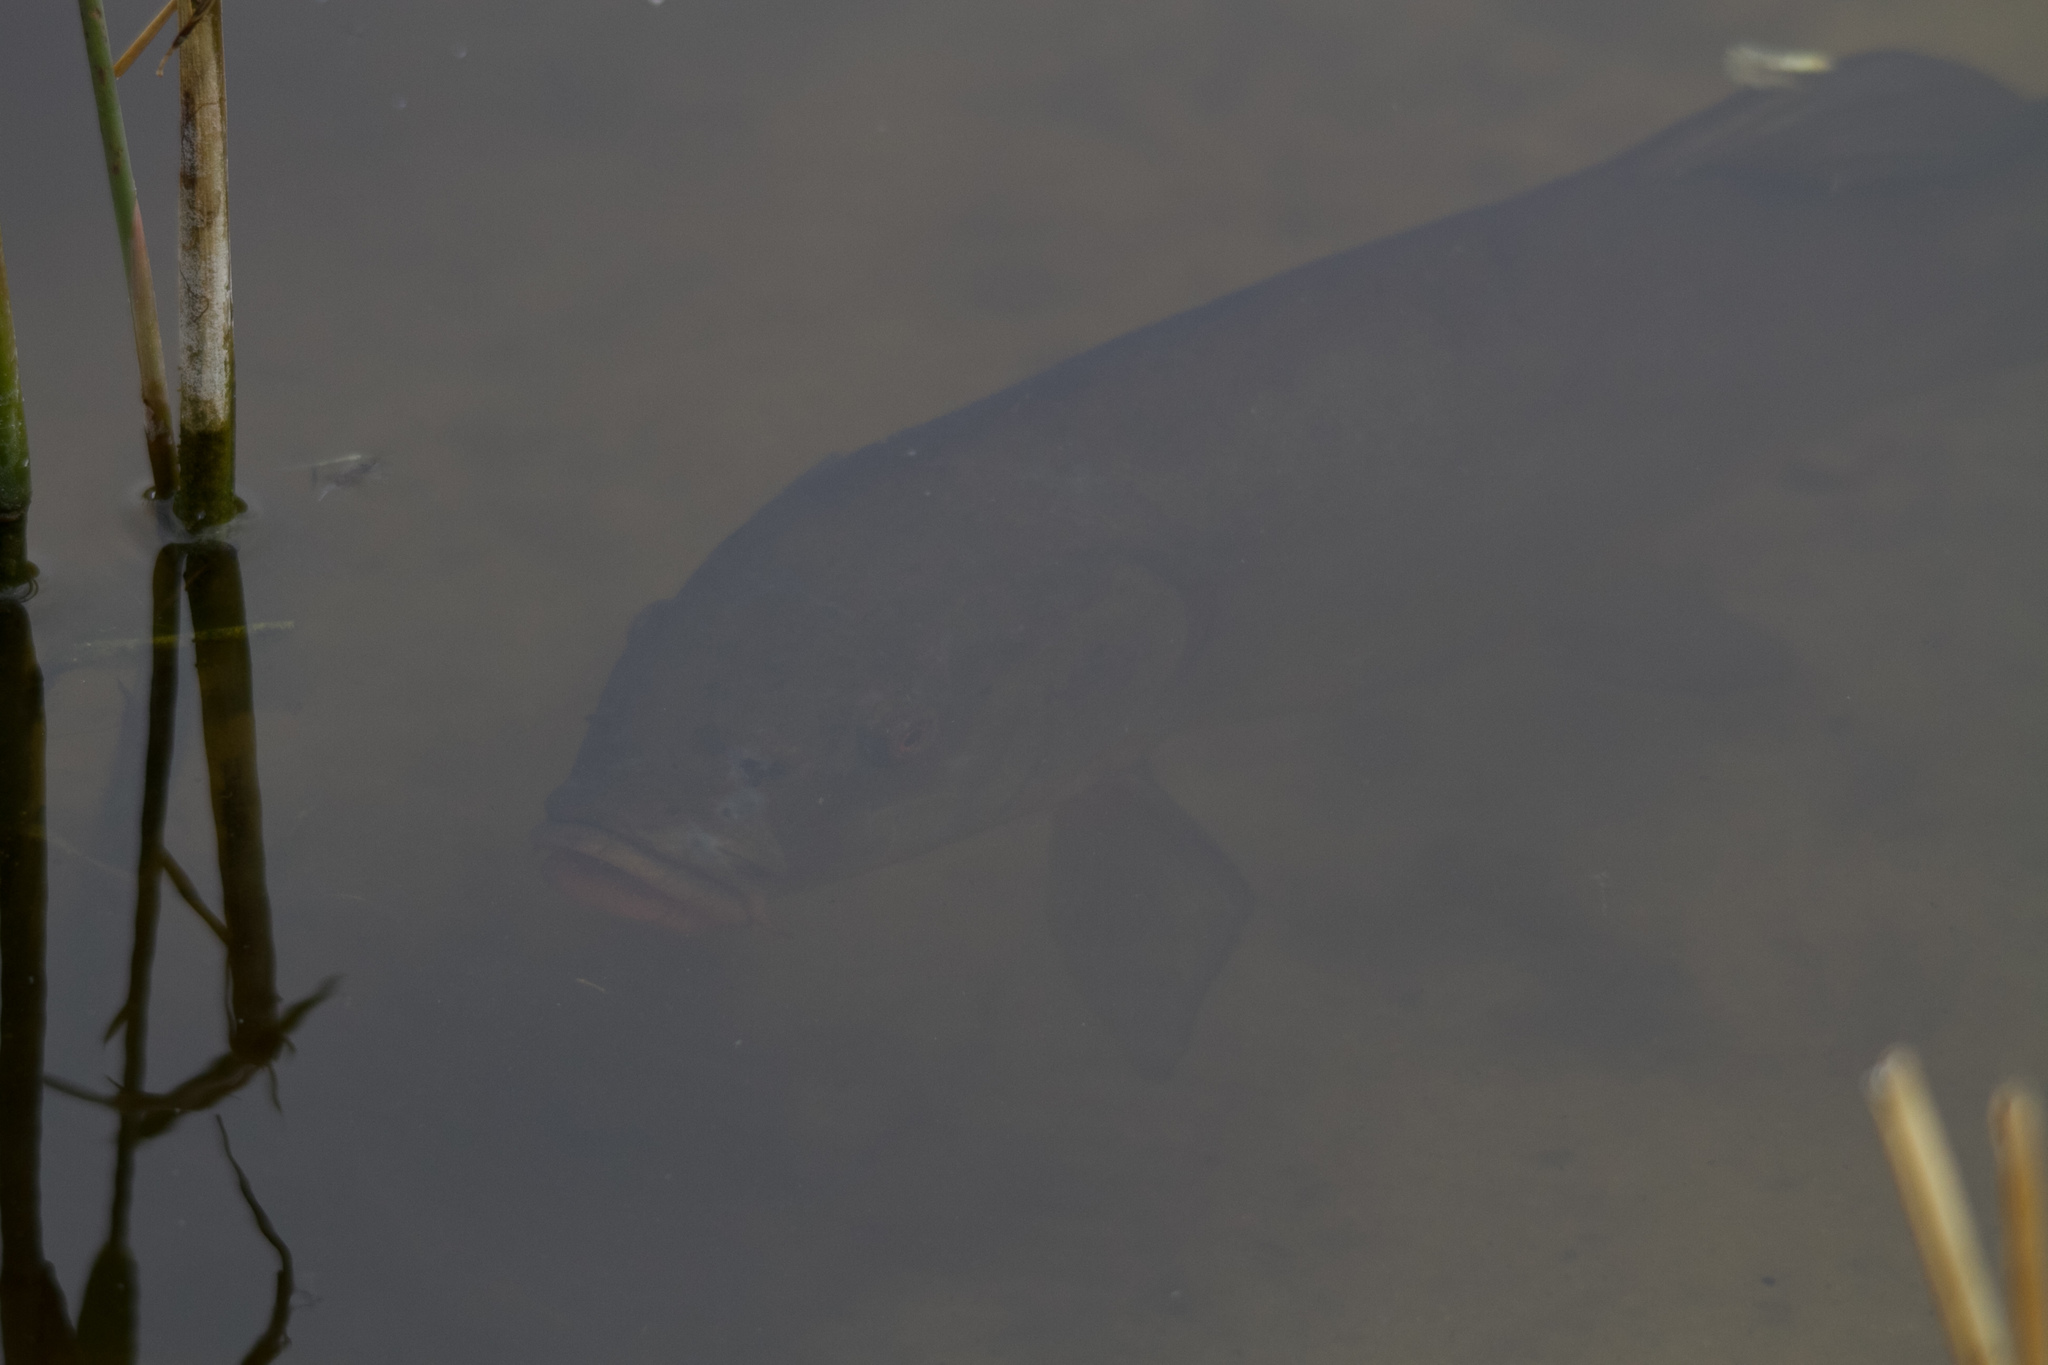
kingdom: Animalia
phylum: Chordata
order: Cypriniformes
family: Cyprinidae
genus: Tinca
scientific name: Tinca tinca
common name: Tench
